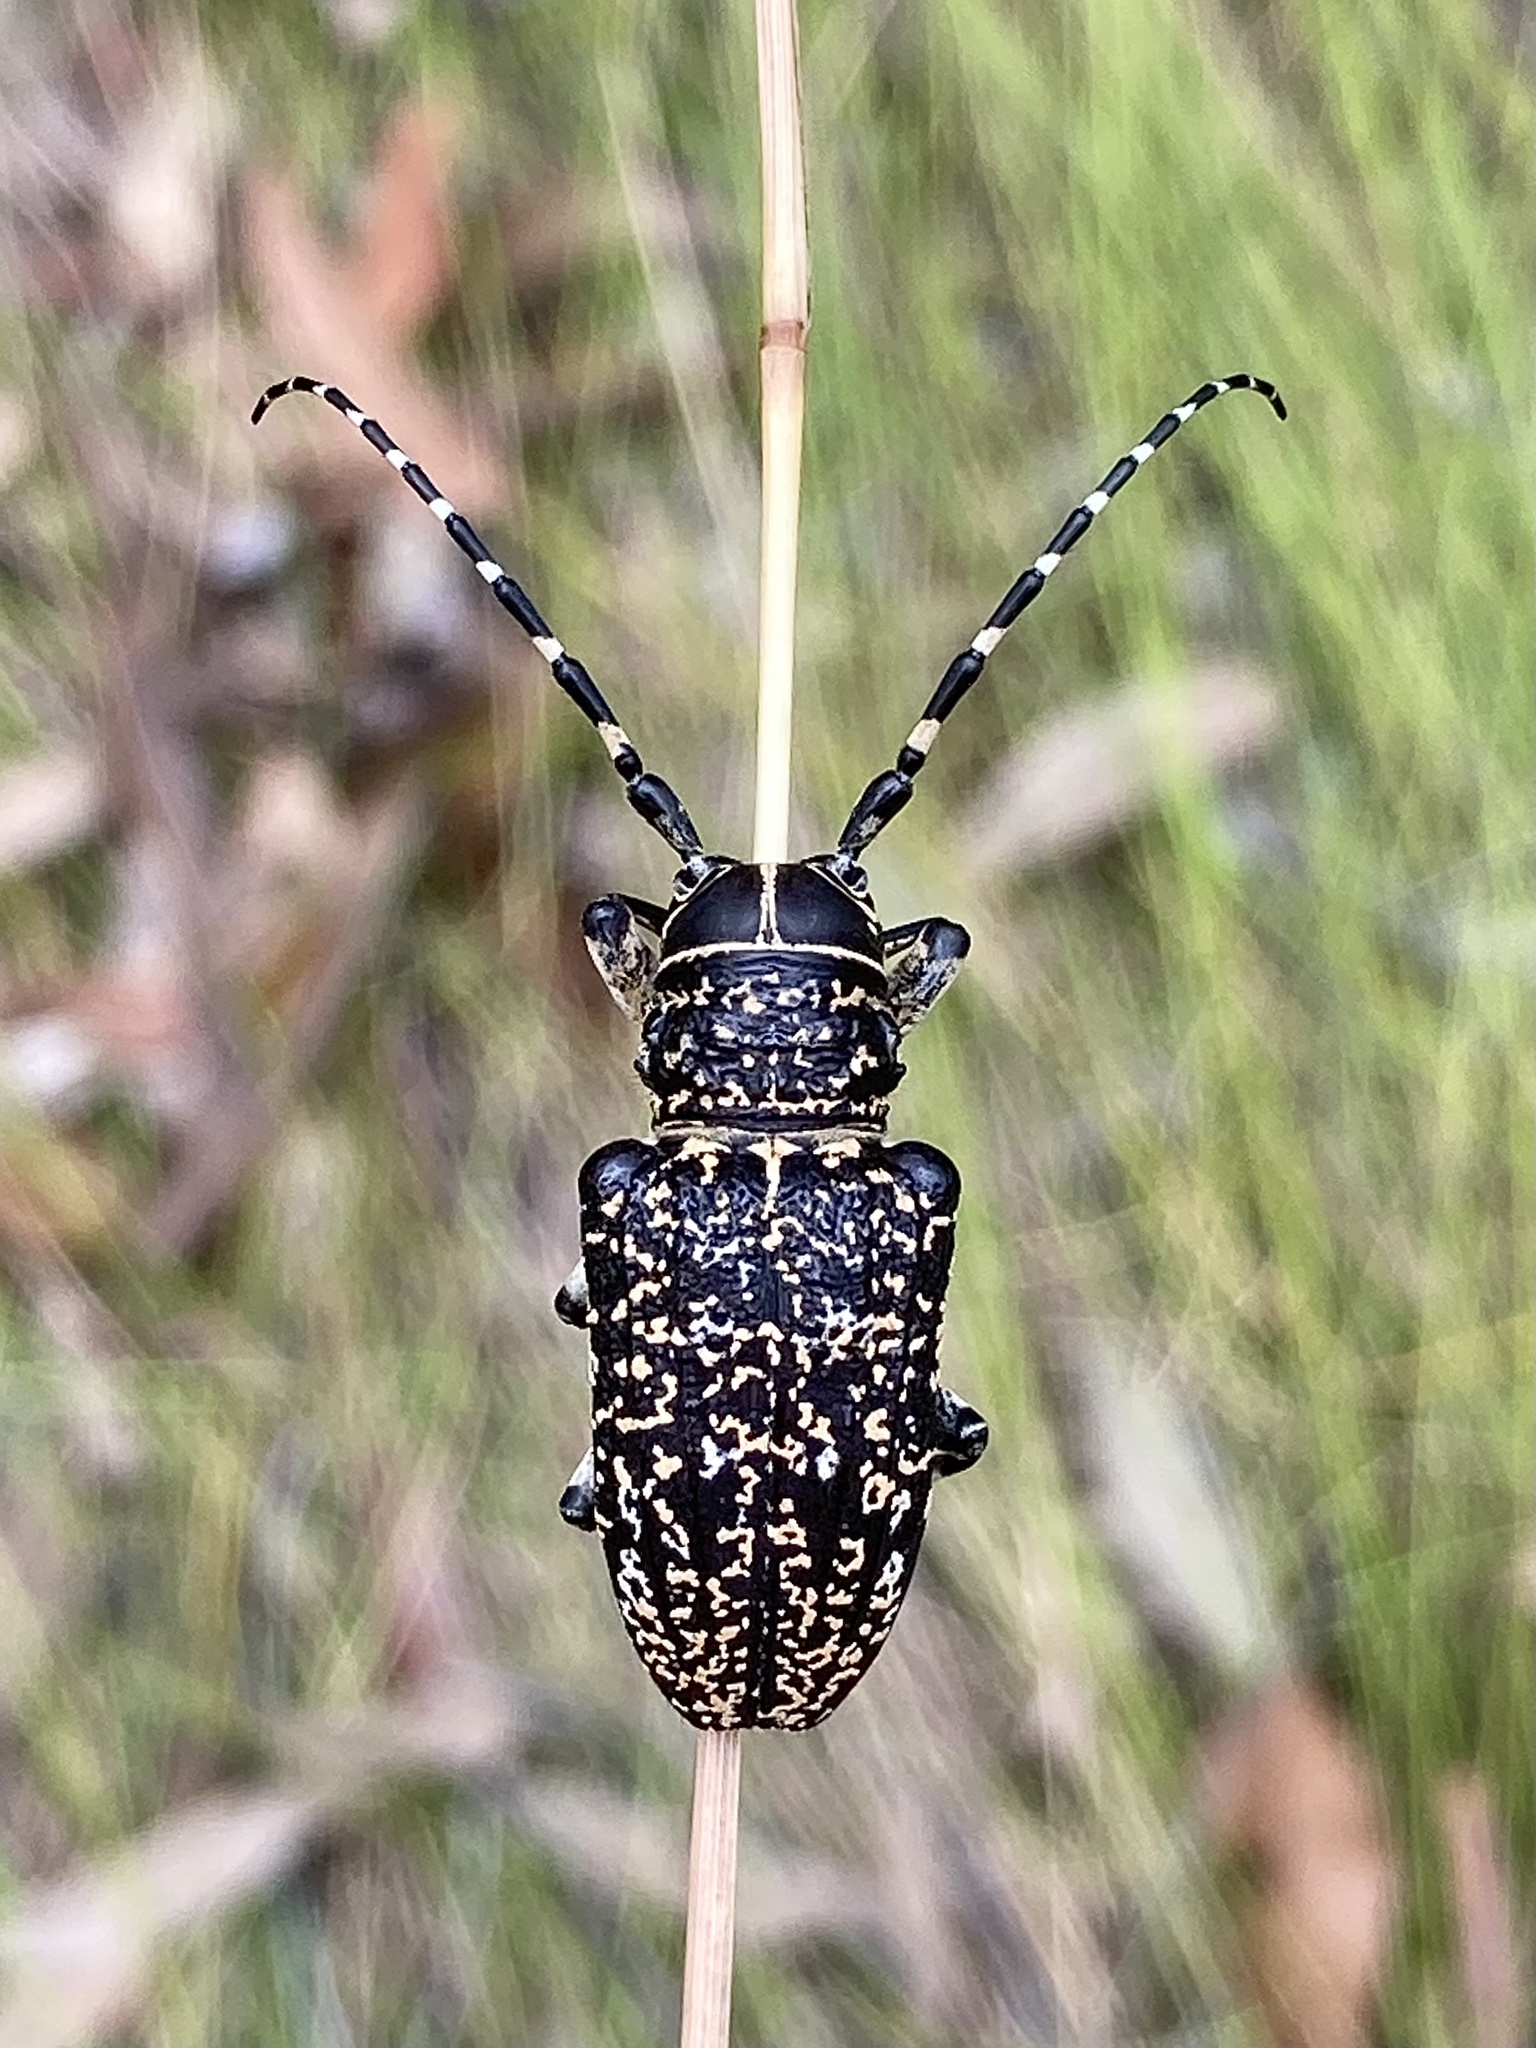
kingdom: Animalia
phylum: Arthropoda
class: Insecta
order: Coleoptera
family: Cerambycidae
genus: Rhytiphora
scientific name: Rhytiphora vermicularia
